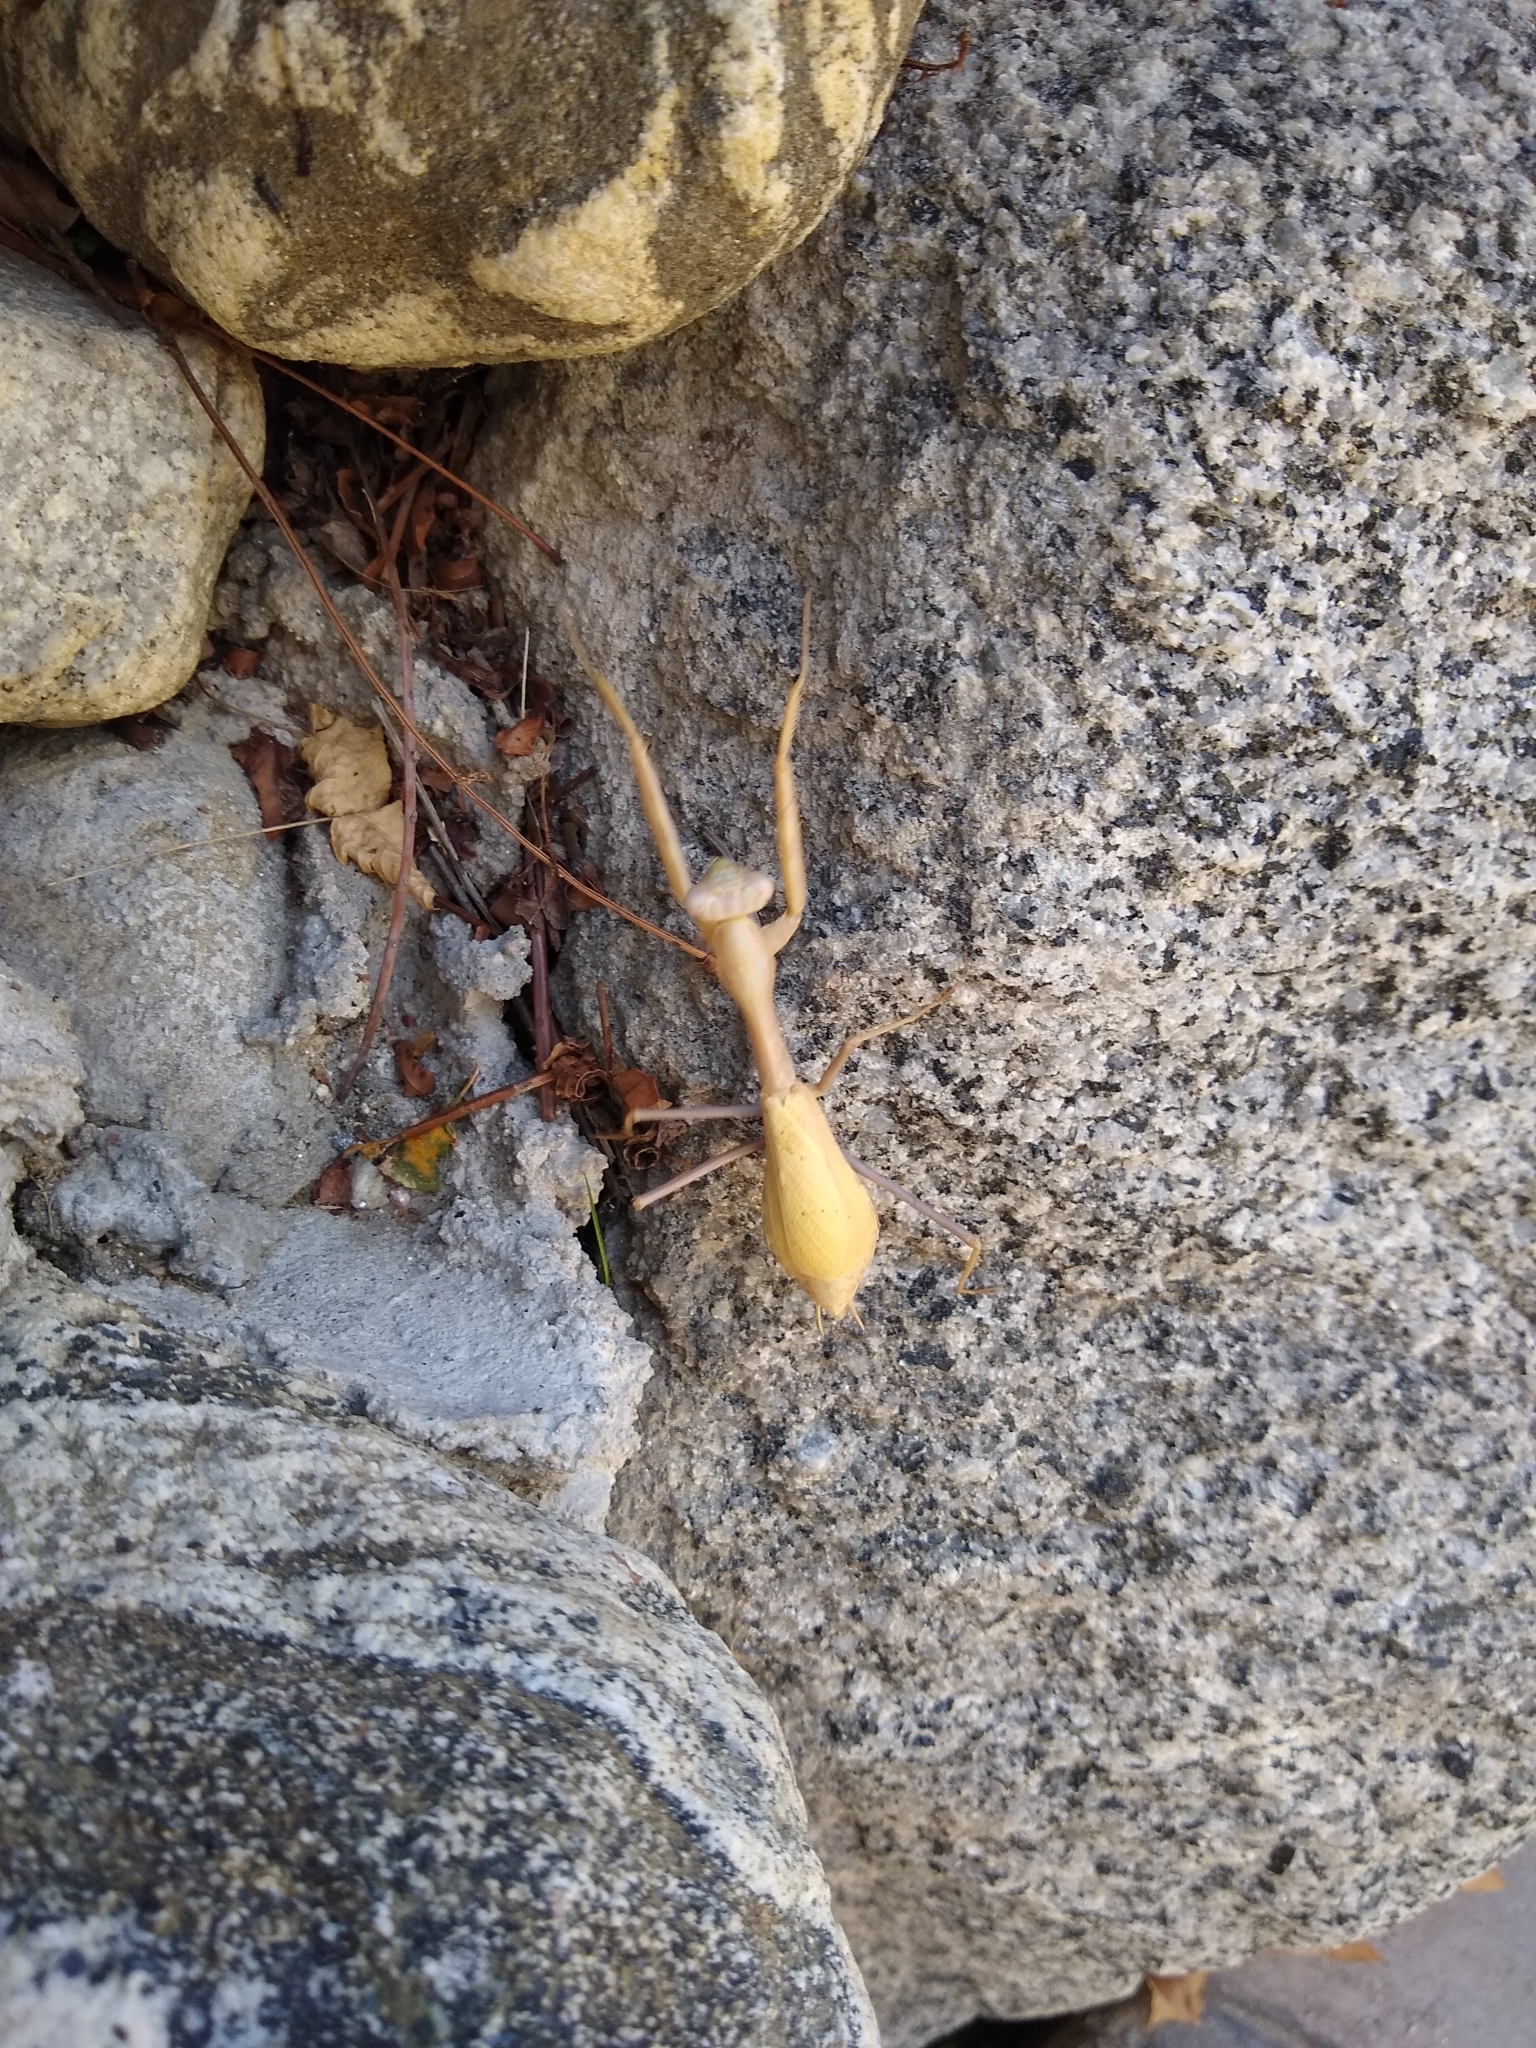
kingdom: Animalia
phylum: Arthropoda
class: Insecta
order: Mantodea
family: Mantidae
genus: Stagmomantis
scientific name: Stagmomantis limbata
